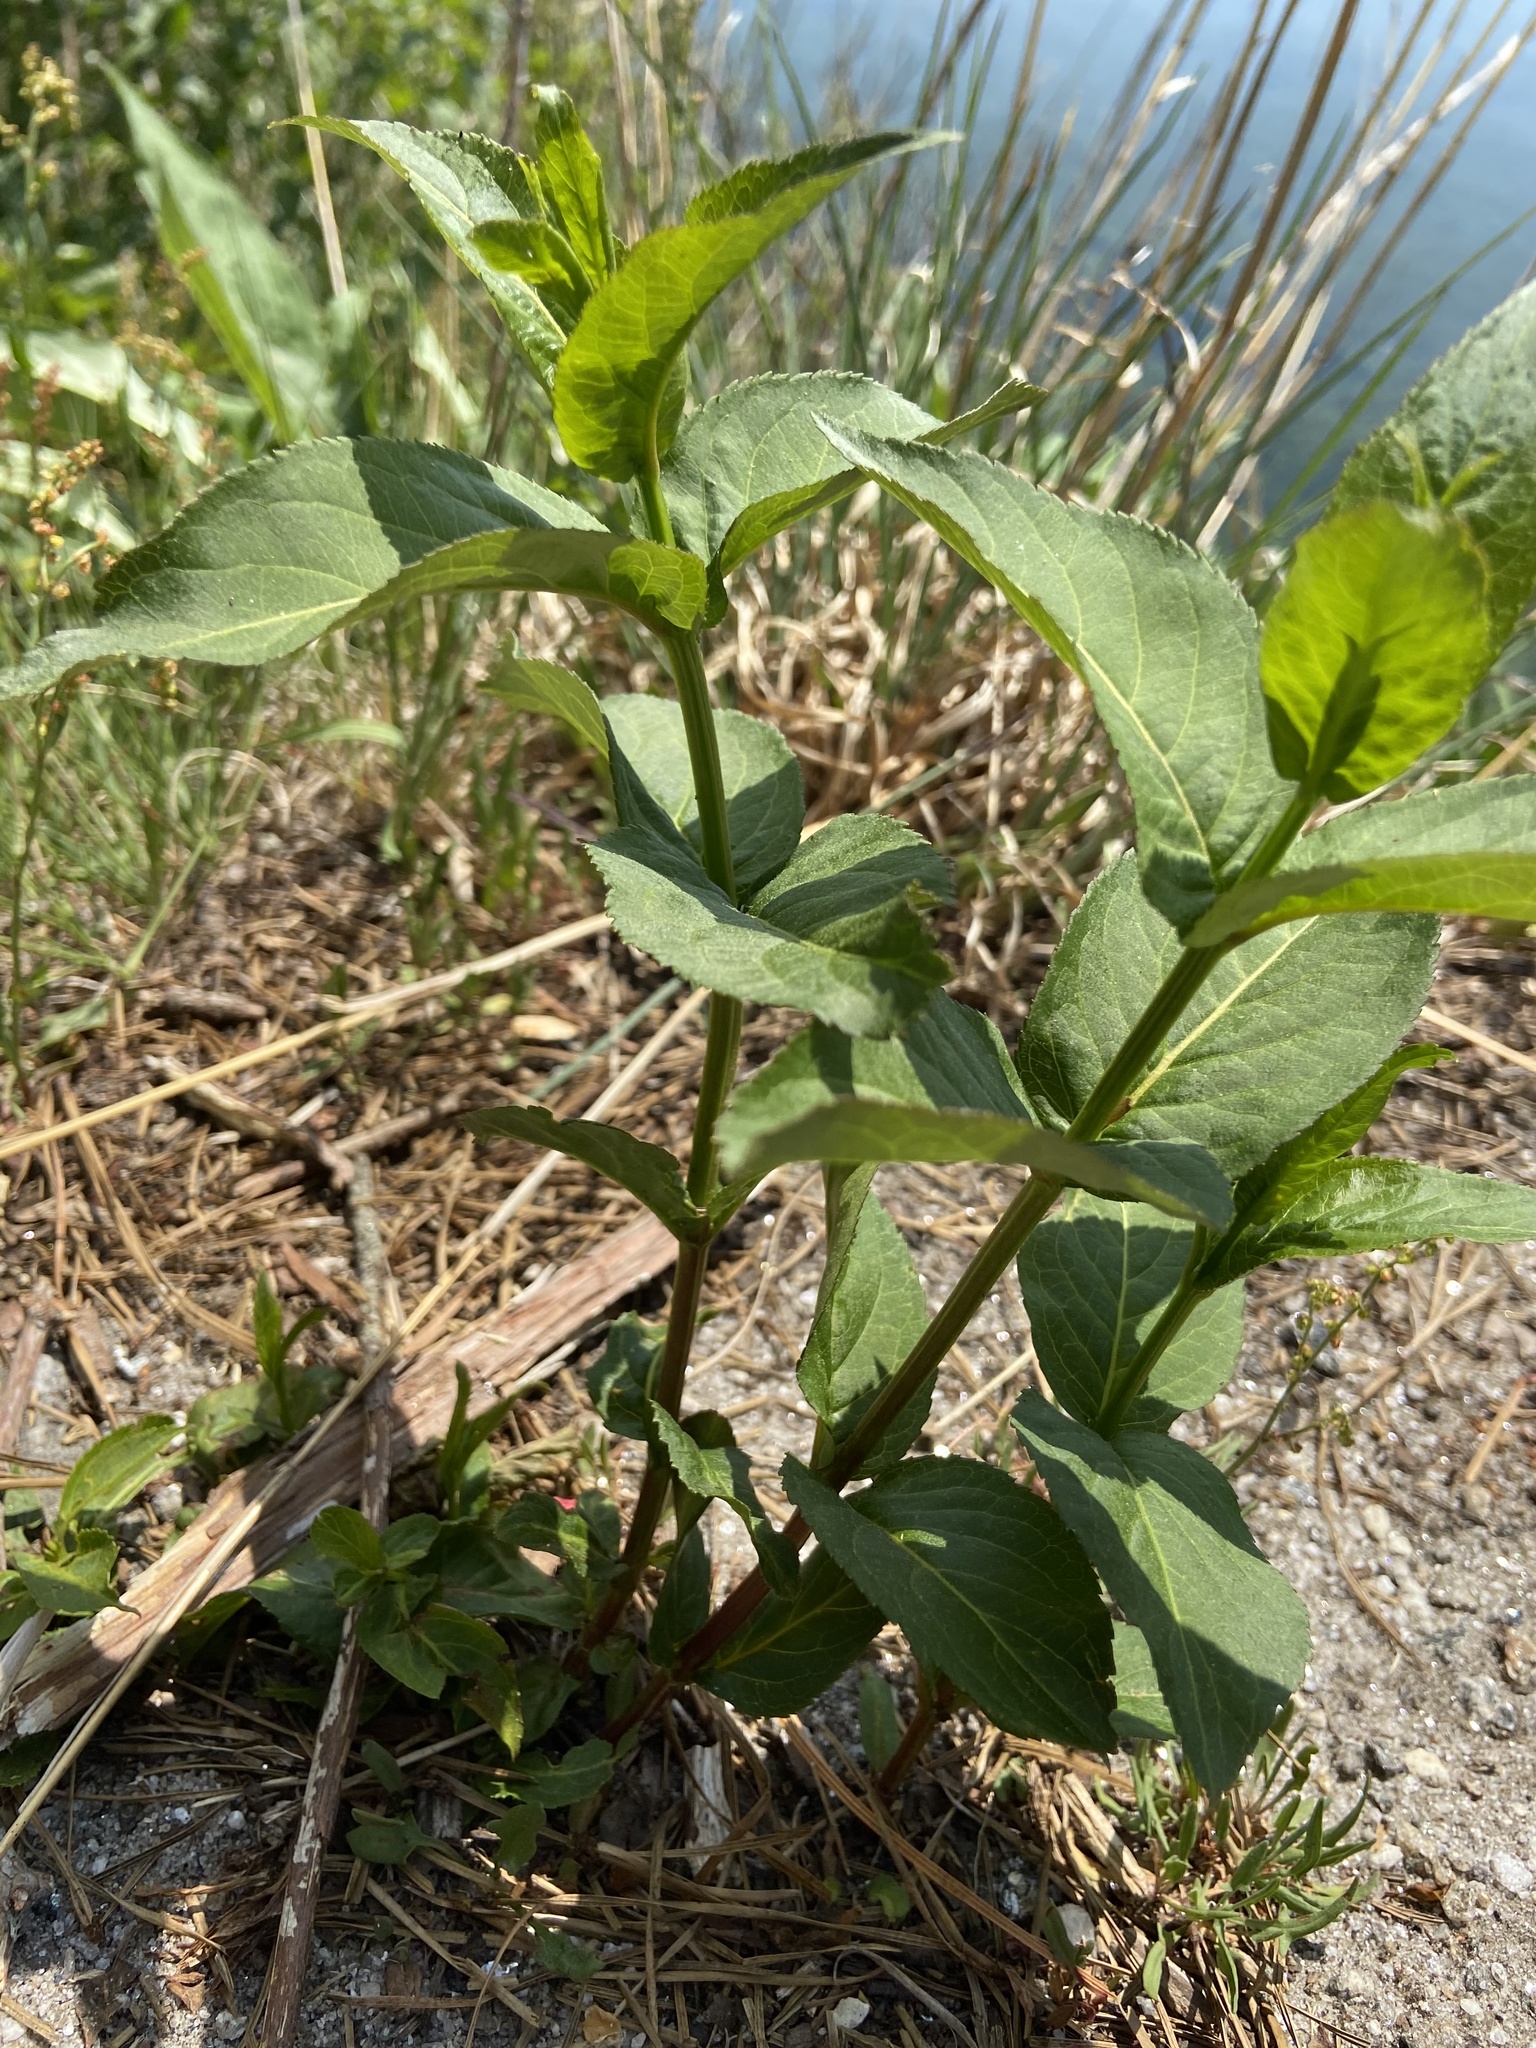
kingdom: Plantae
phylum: Tracheophyta
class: Magnoliopsida
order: Dipsacales
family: Caprifoliaceae
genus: Diervilla
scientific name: Diervilla sessilifolia
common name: Bush-honeysuckle
